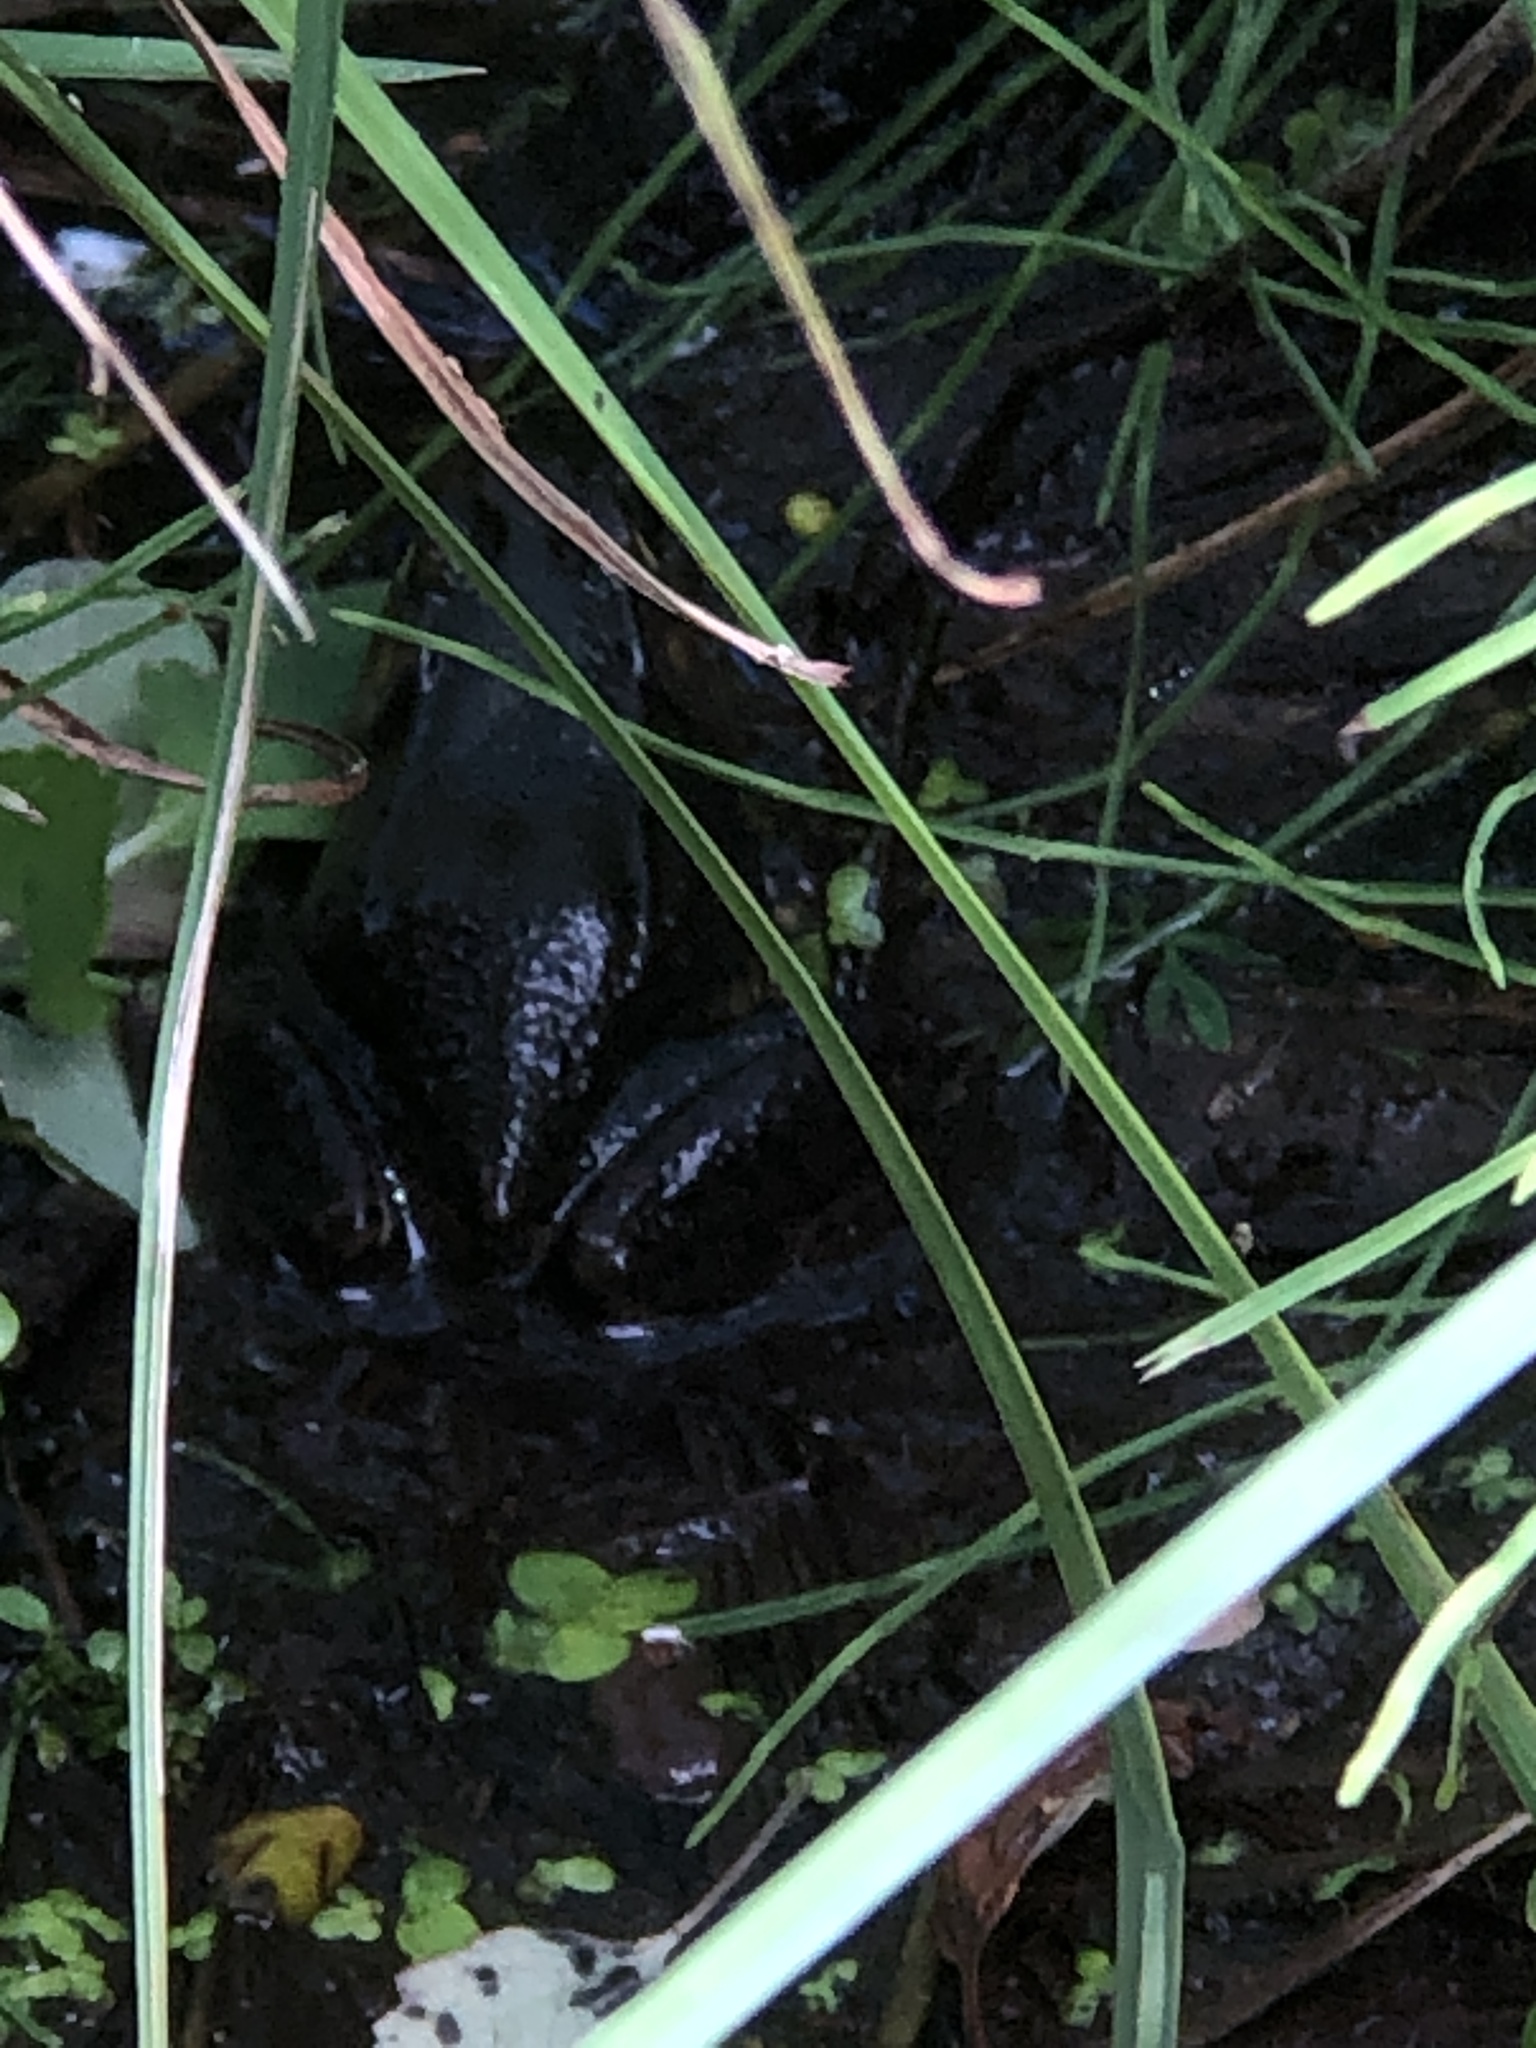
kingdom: Animalia
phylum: Chordata
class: Amphibia
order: Anura
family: Ranidae
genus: Lithobates
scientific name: Lithobates clamitans
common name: Green frog
